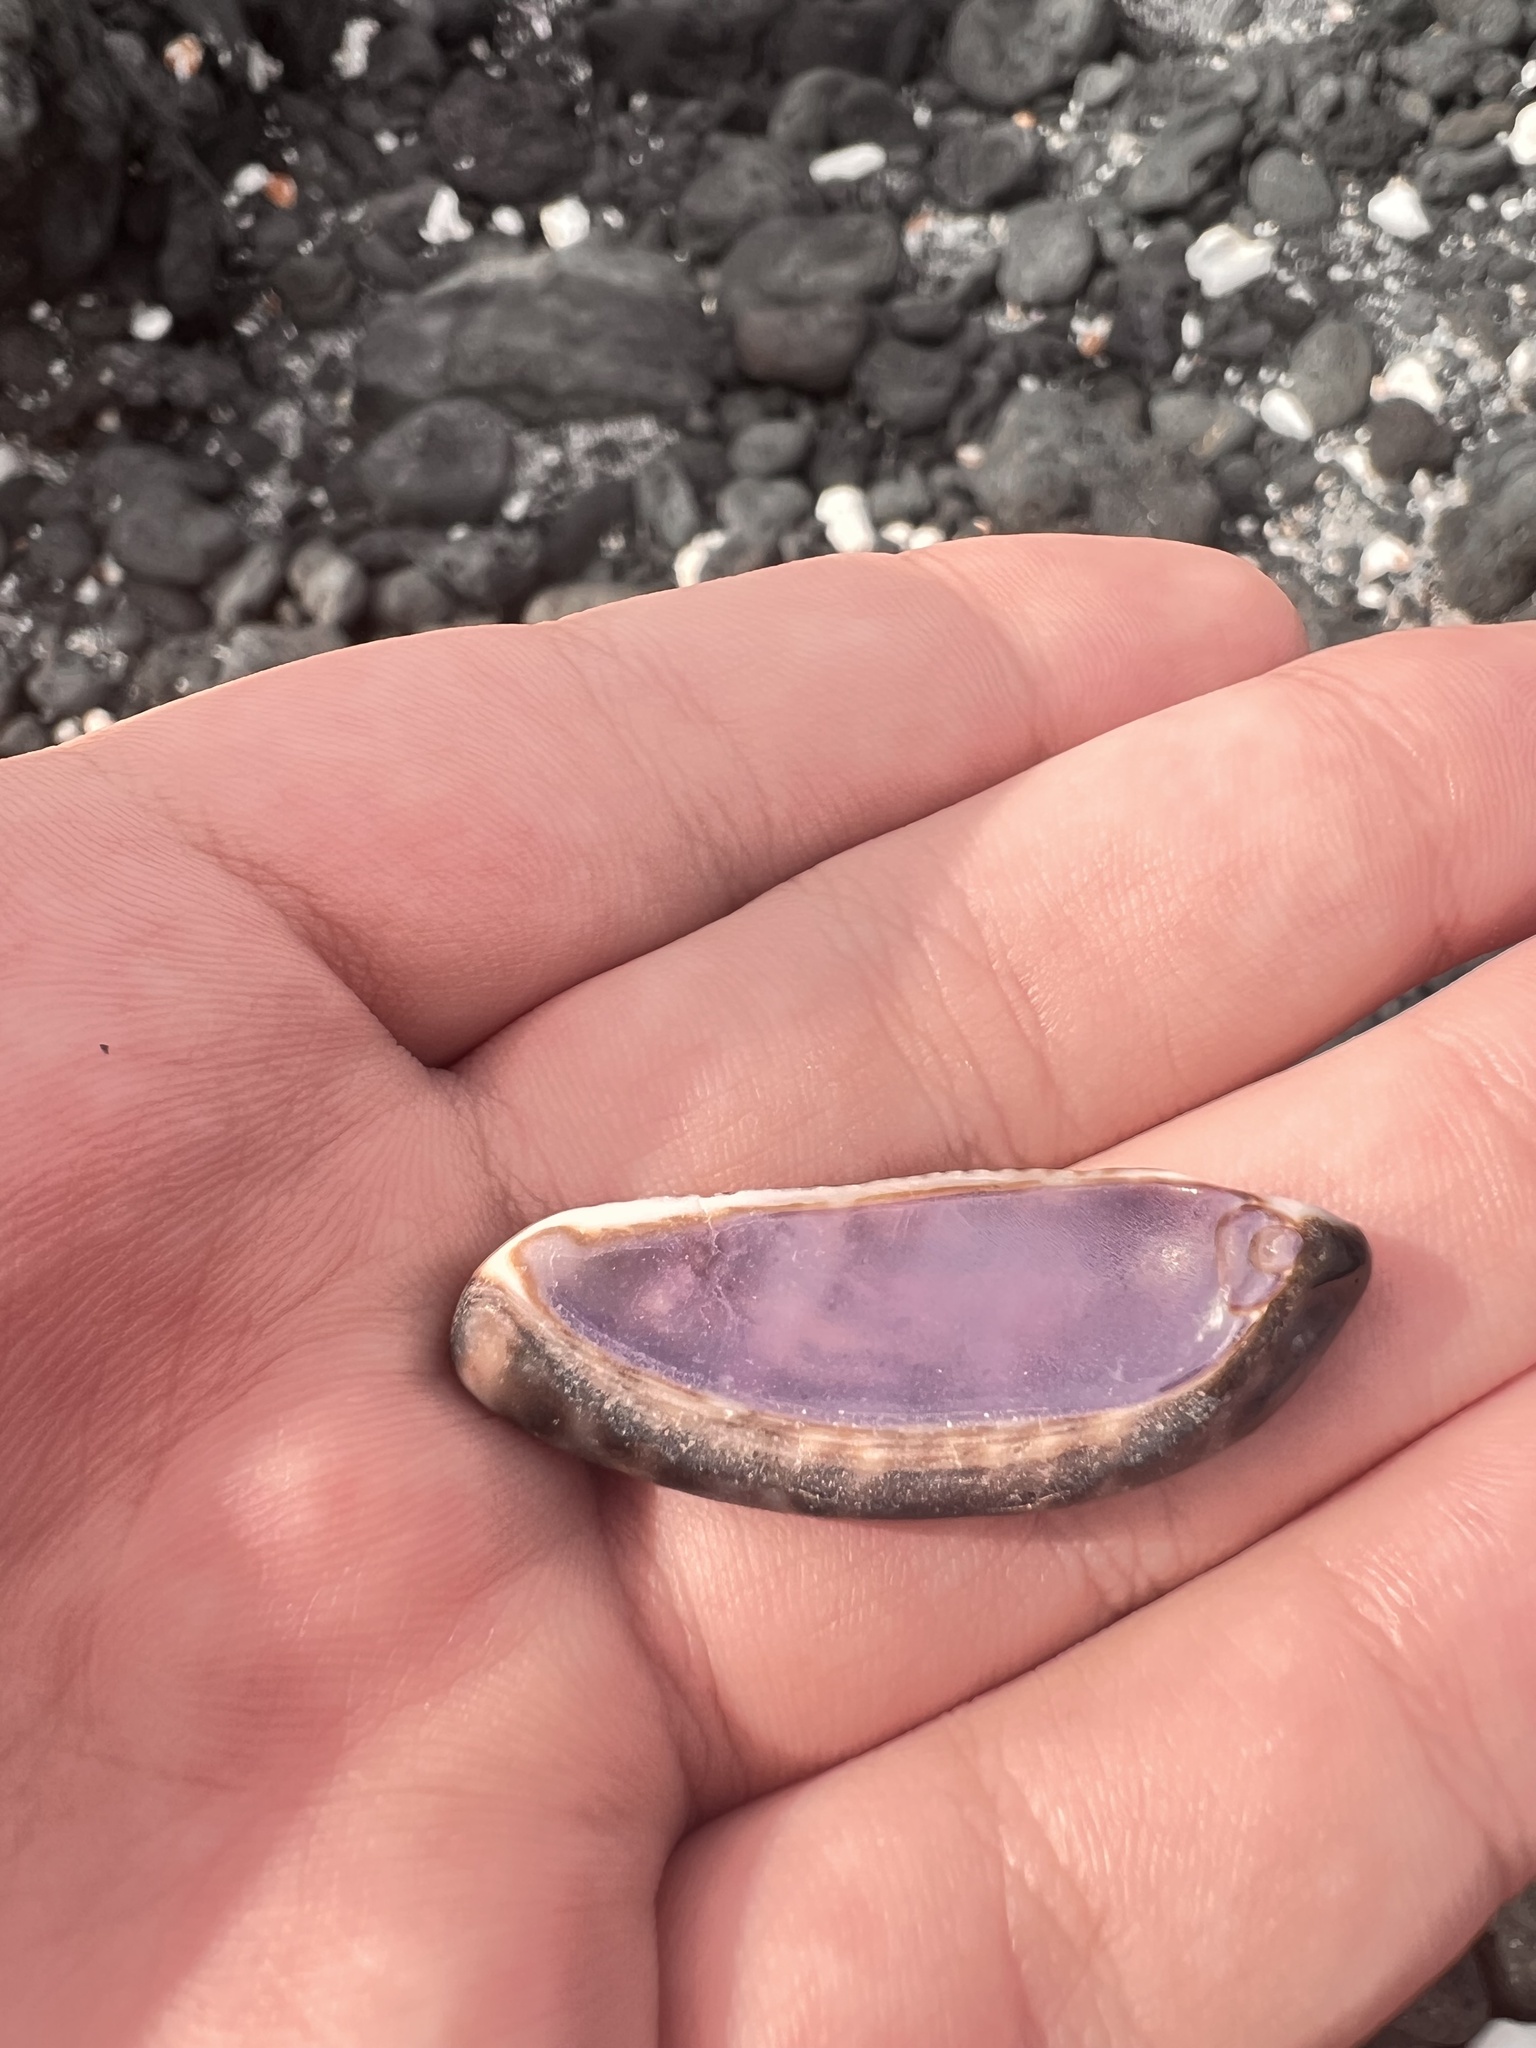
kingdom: Animalia
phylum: Mollusca
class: Gastropoda
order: Littorinimorpha
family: Cypraeidae
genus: Mauritia
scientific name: Mauritia maculifera
